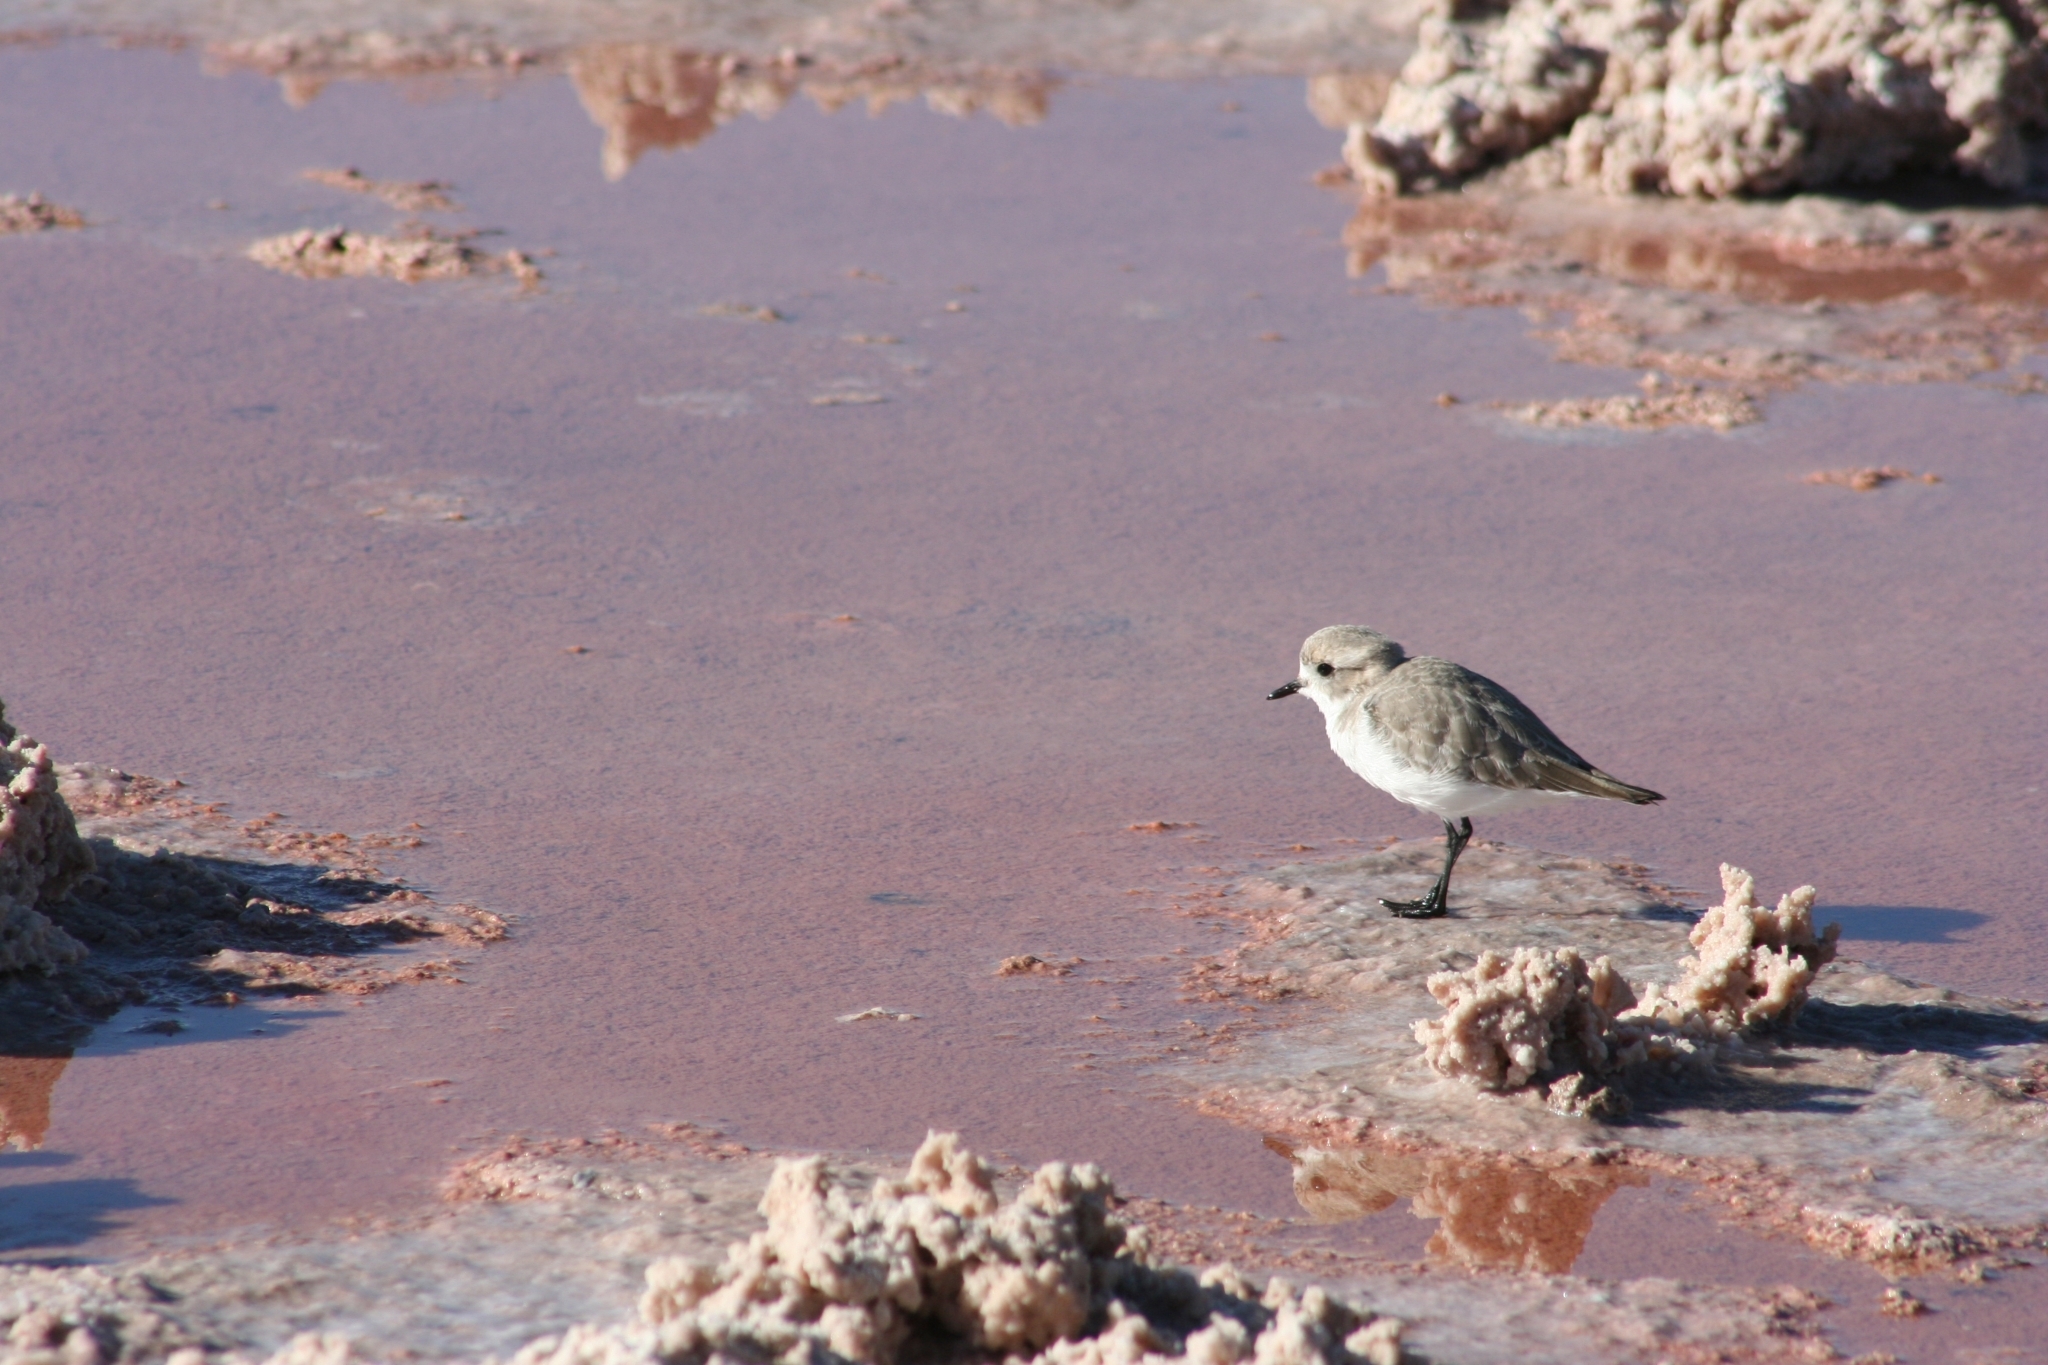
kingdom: Animalia
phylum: Chordata
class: Aves
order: Charadriiformes
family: Charadriidae
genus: Anarhynchus
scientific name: Anarhynchus
